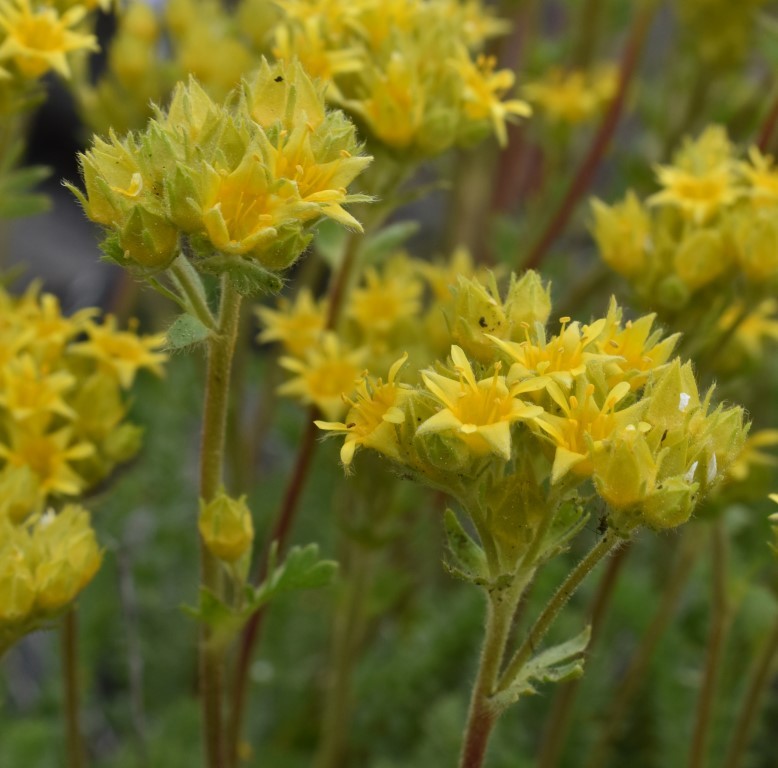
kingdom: Plantae
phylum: Tracheophyta
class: Magnoliopsida
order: Rosales
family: Rosaceae
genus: Potentilla
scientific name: Potentilla gordonii
